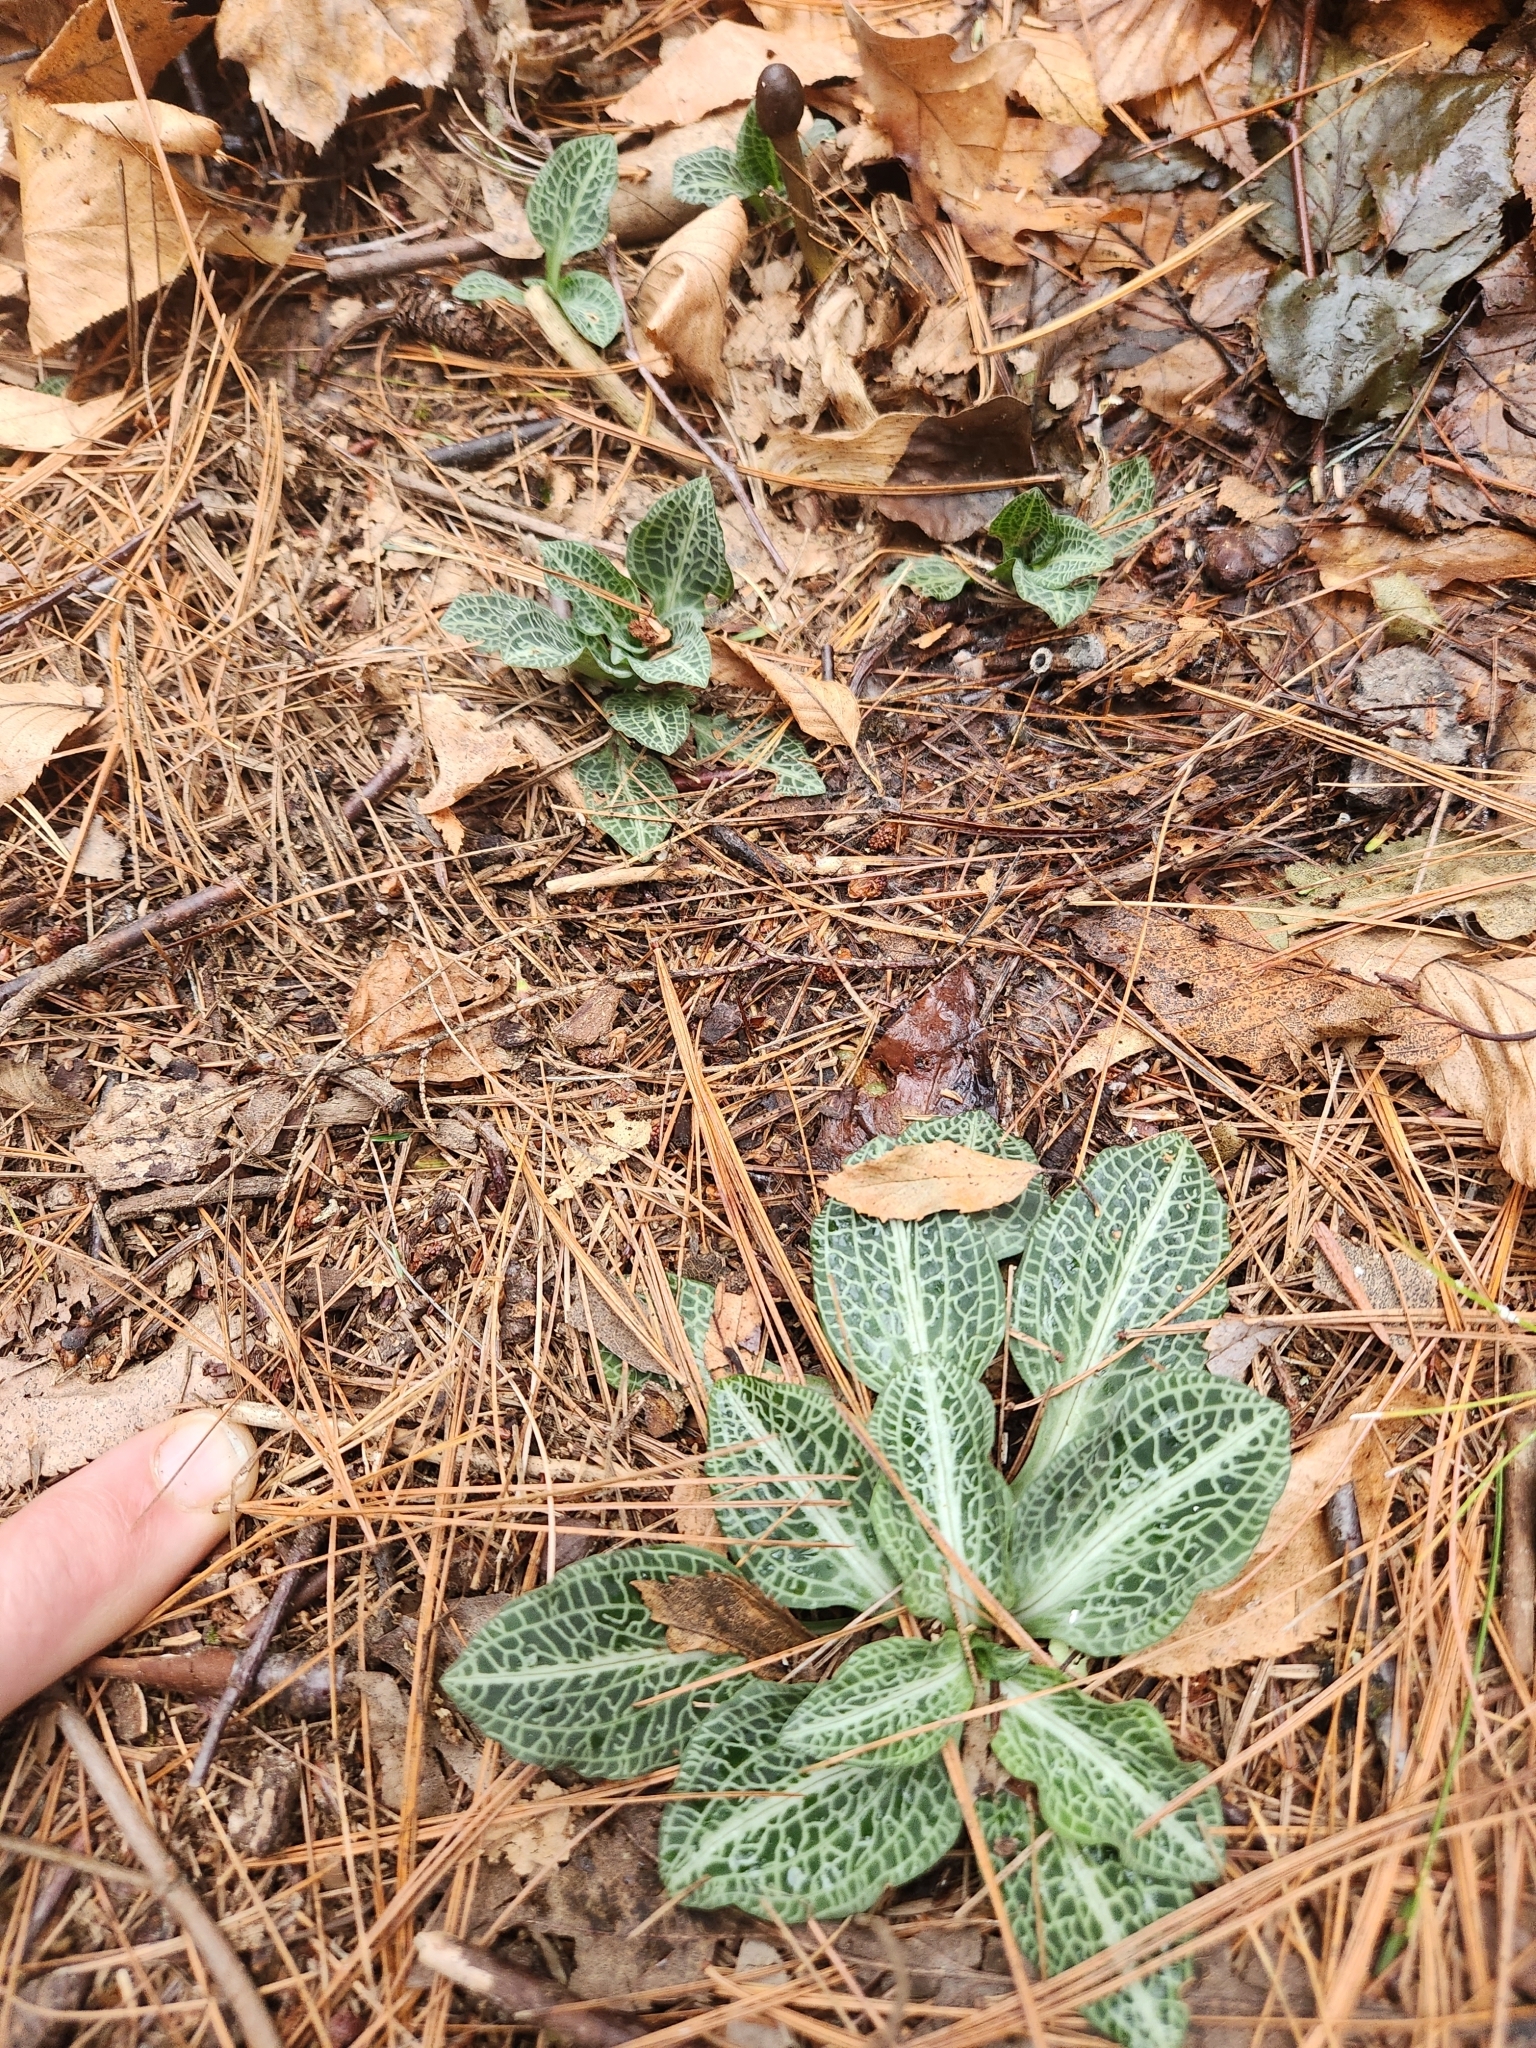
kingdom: Plantae
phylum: Tracheophyta
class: Liliopsida
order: Asparagales
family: Orchidaceae
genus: Goodyera
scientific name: Goodyera pubescens
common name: Downy rattlesnake-plantain
